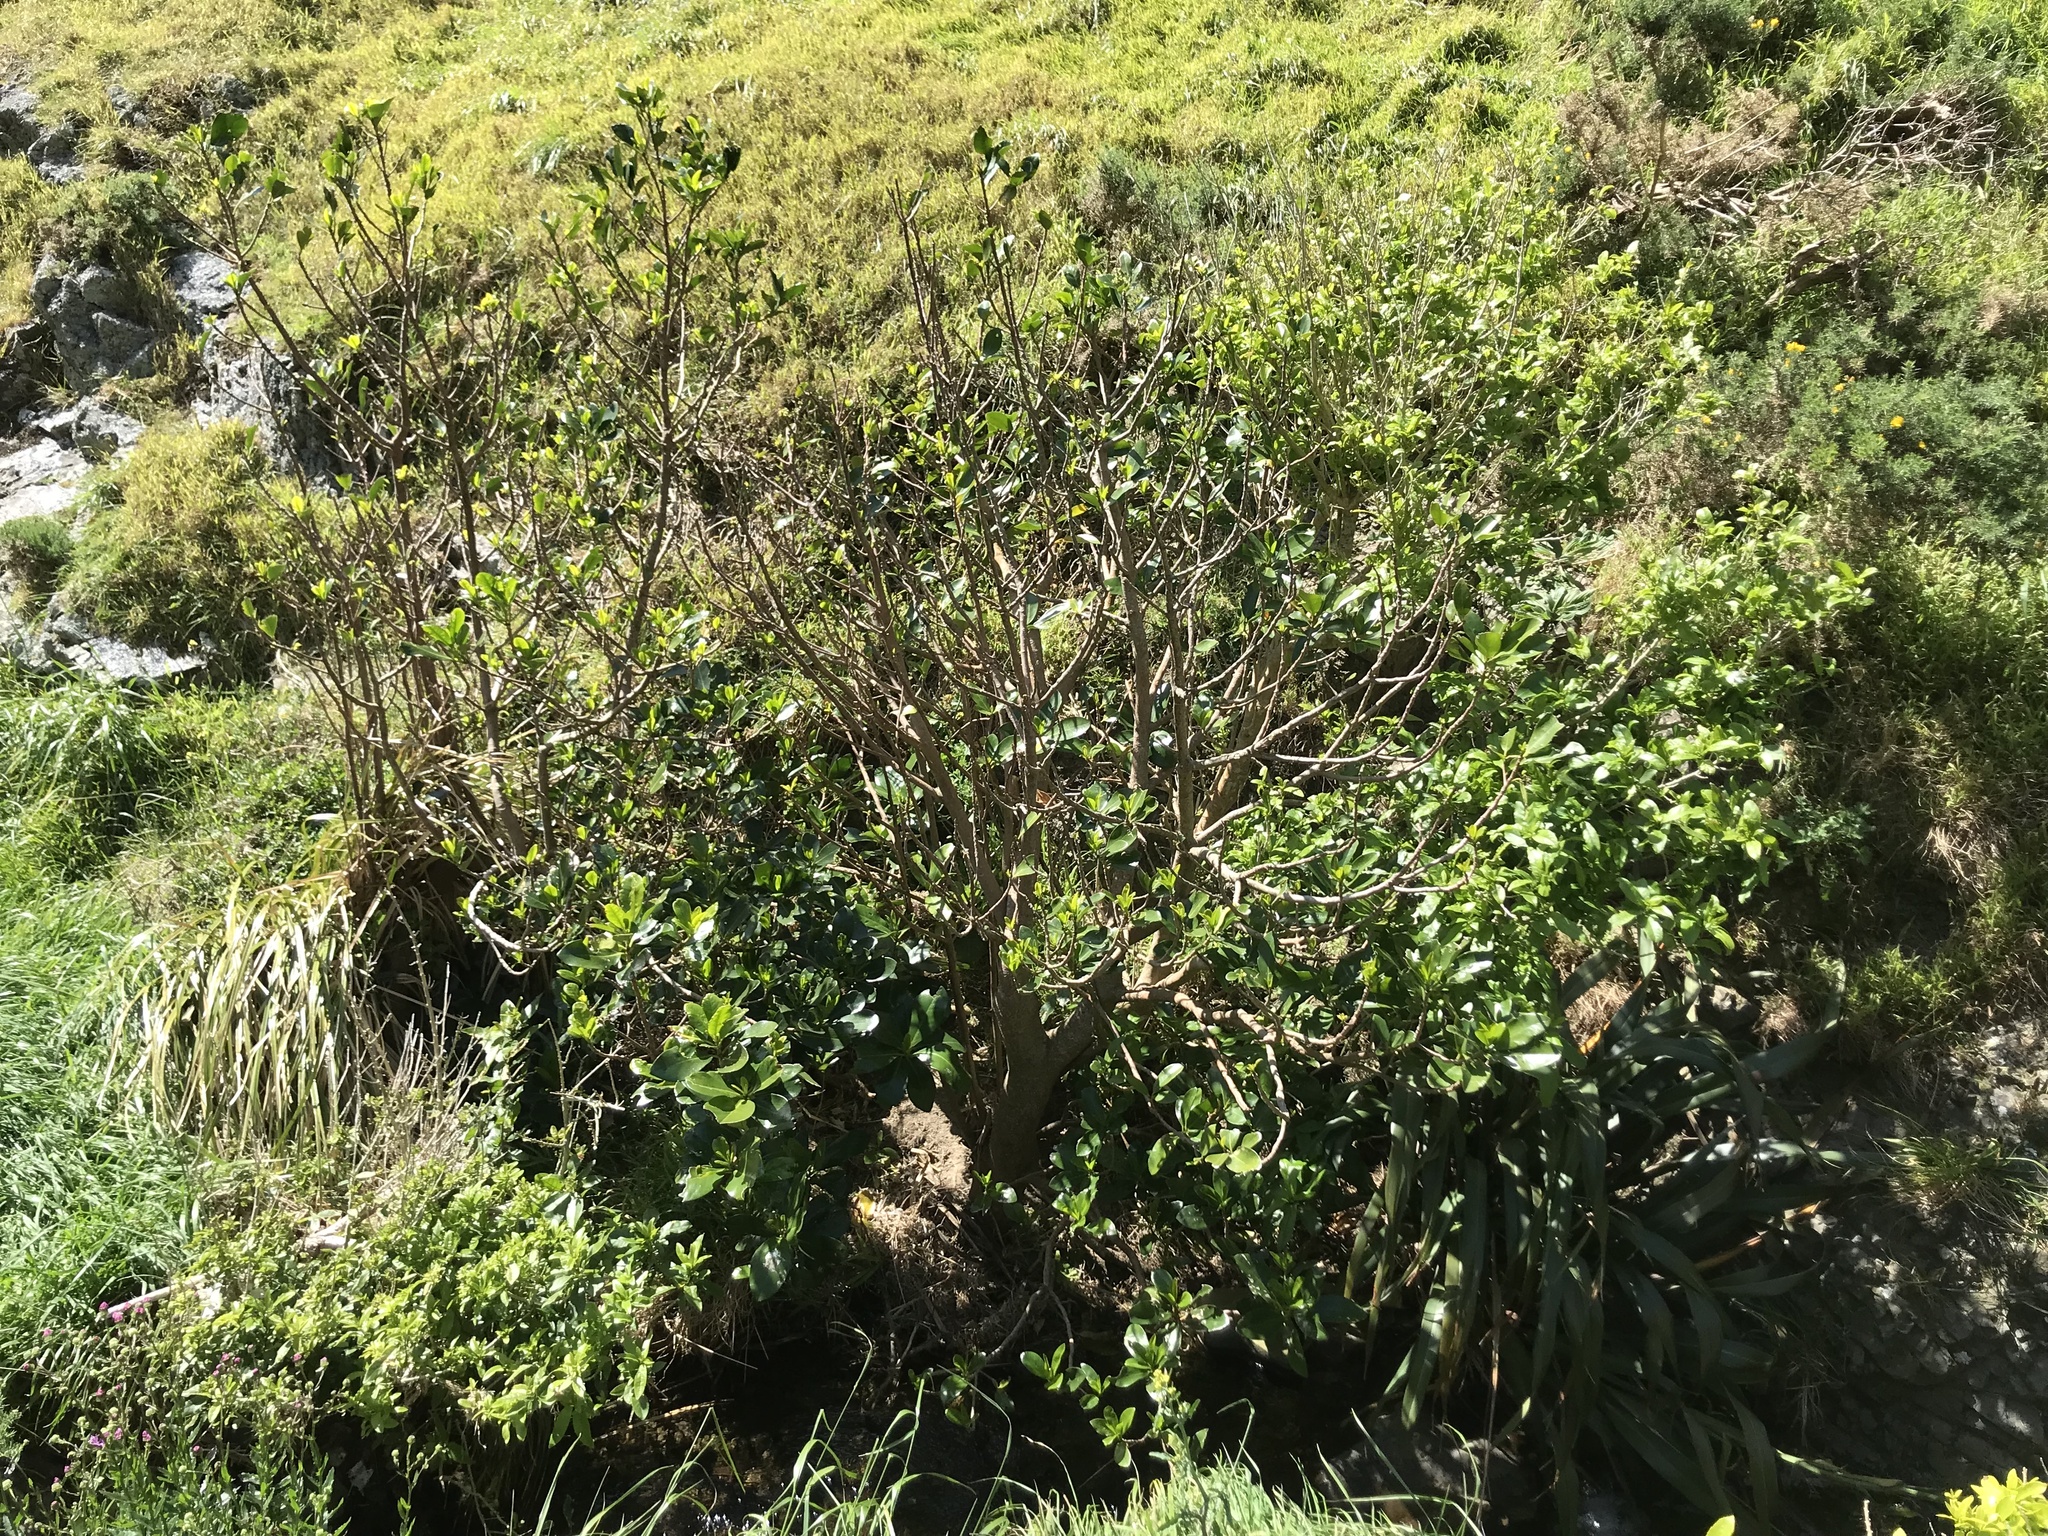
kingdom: Plantae
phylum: Tracheophyta
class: Magnoliopsida
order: Cucurbitales
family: Corynocarpaceae
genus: Corynocarpus
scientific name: Corynocarpus laevigatus
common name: New zealand laurel
